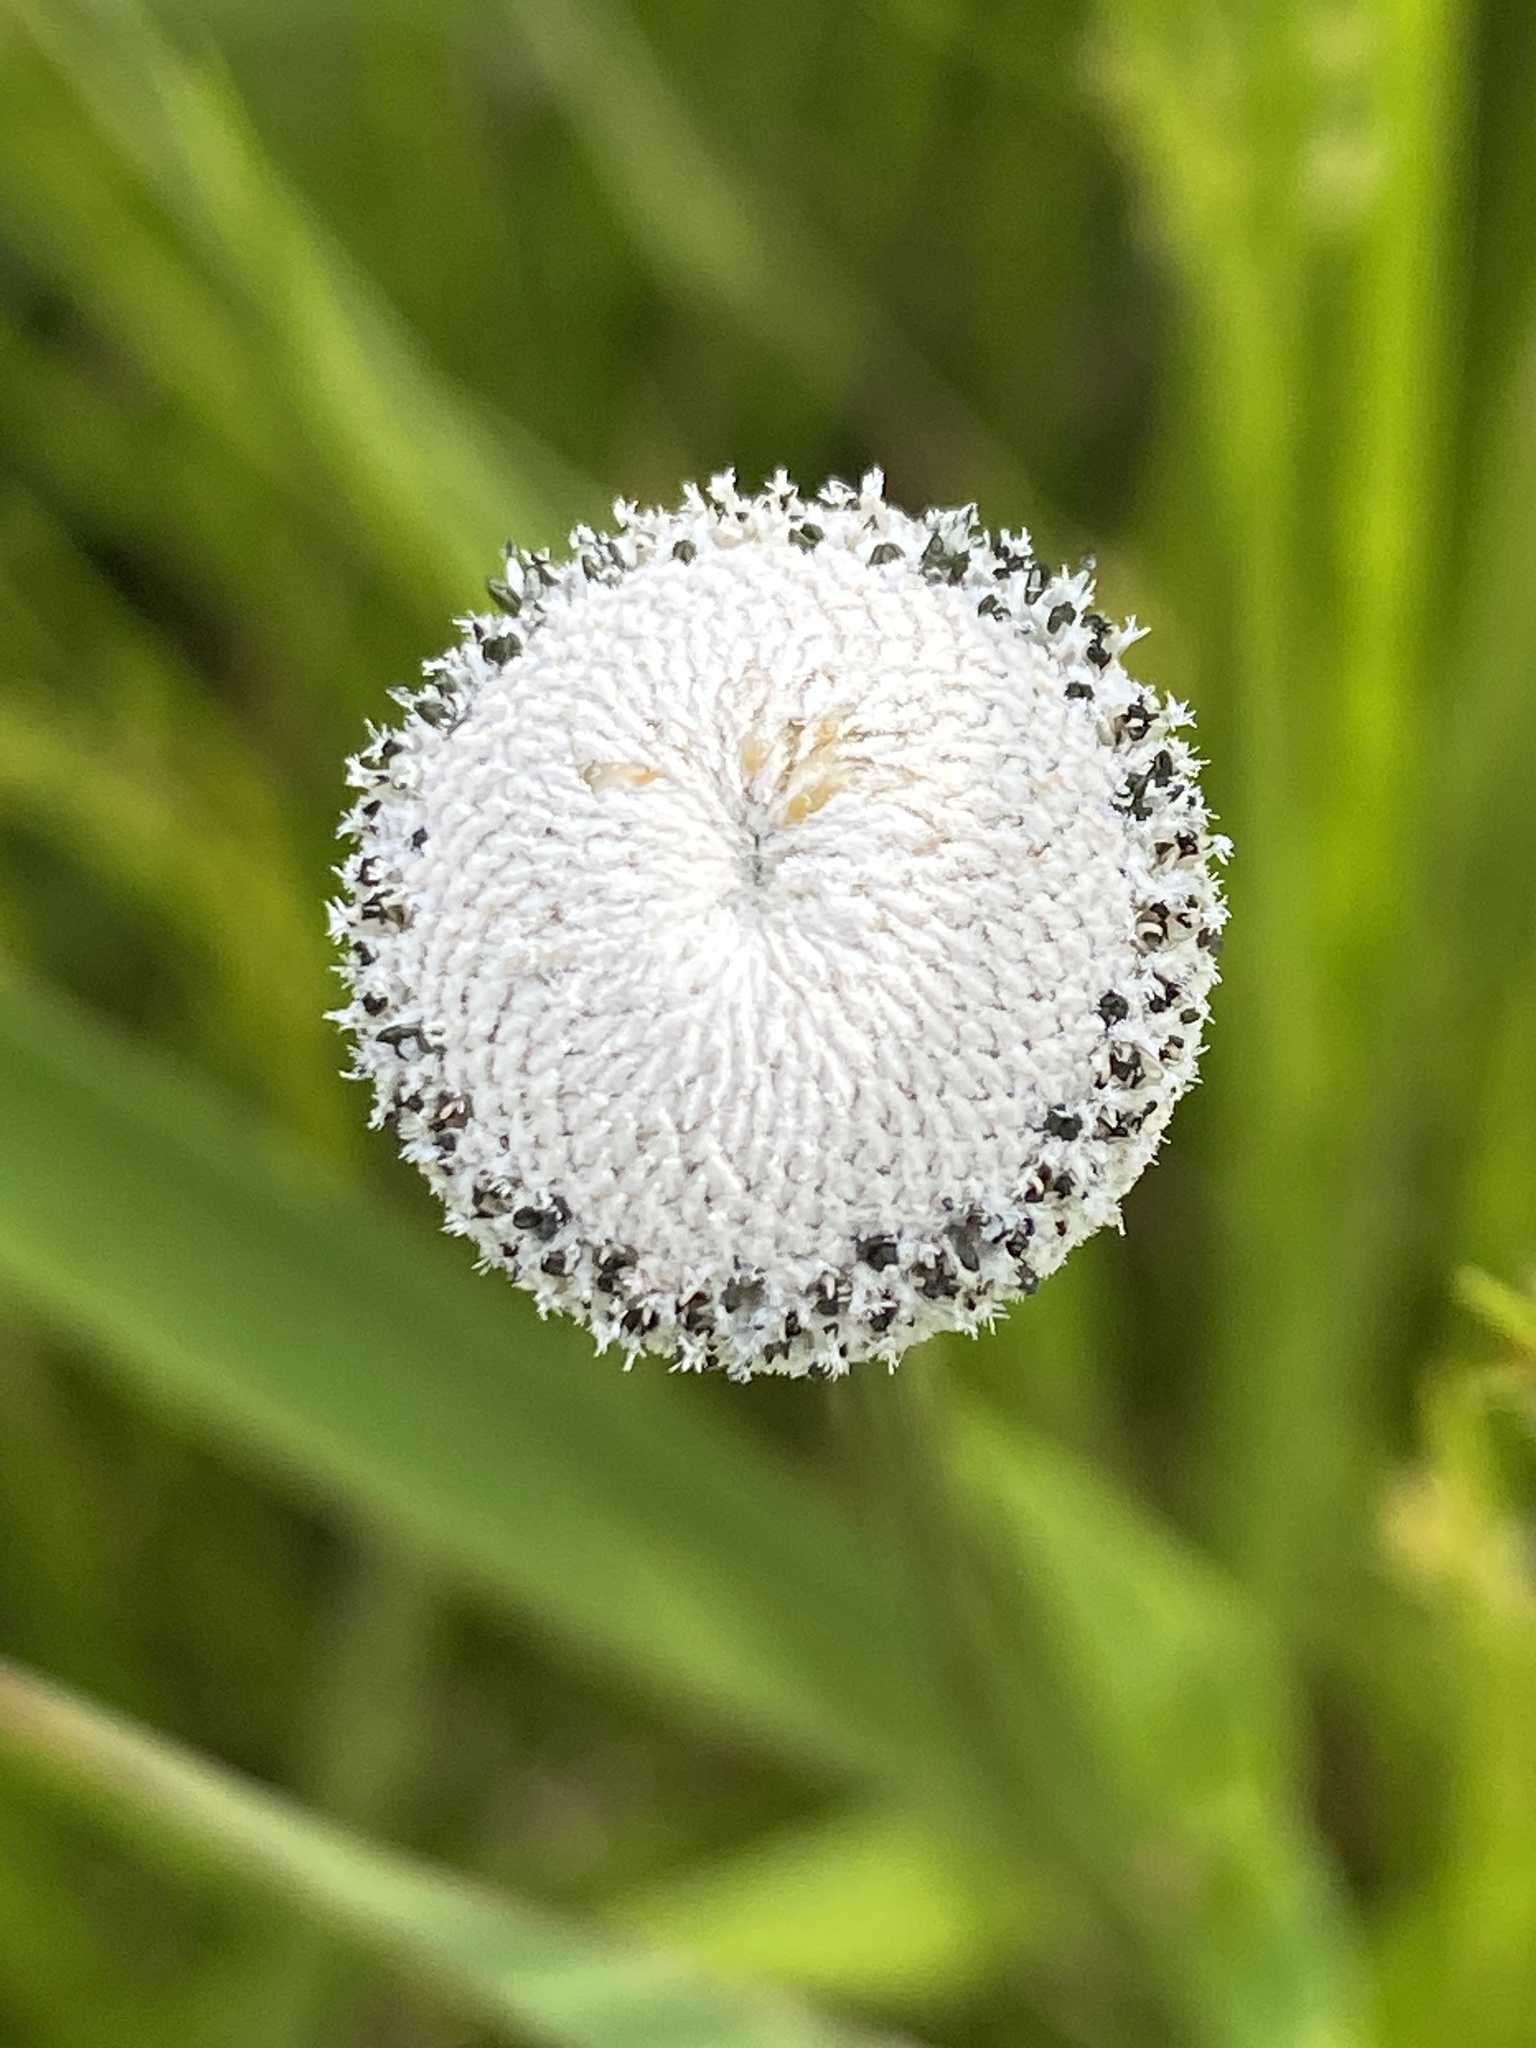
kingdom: Plantae
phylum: Tracheophyta
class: Liliopsida
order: Poales
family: Eriocaulaceae
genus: Eriocaulon
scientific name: Eriocaulon decangulare
